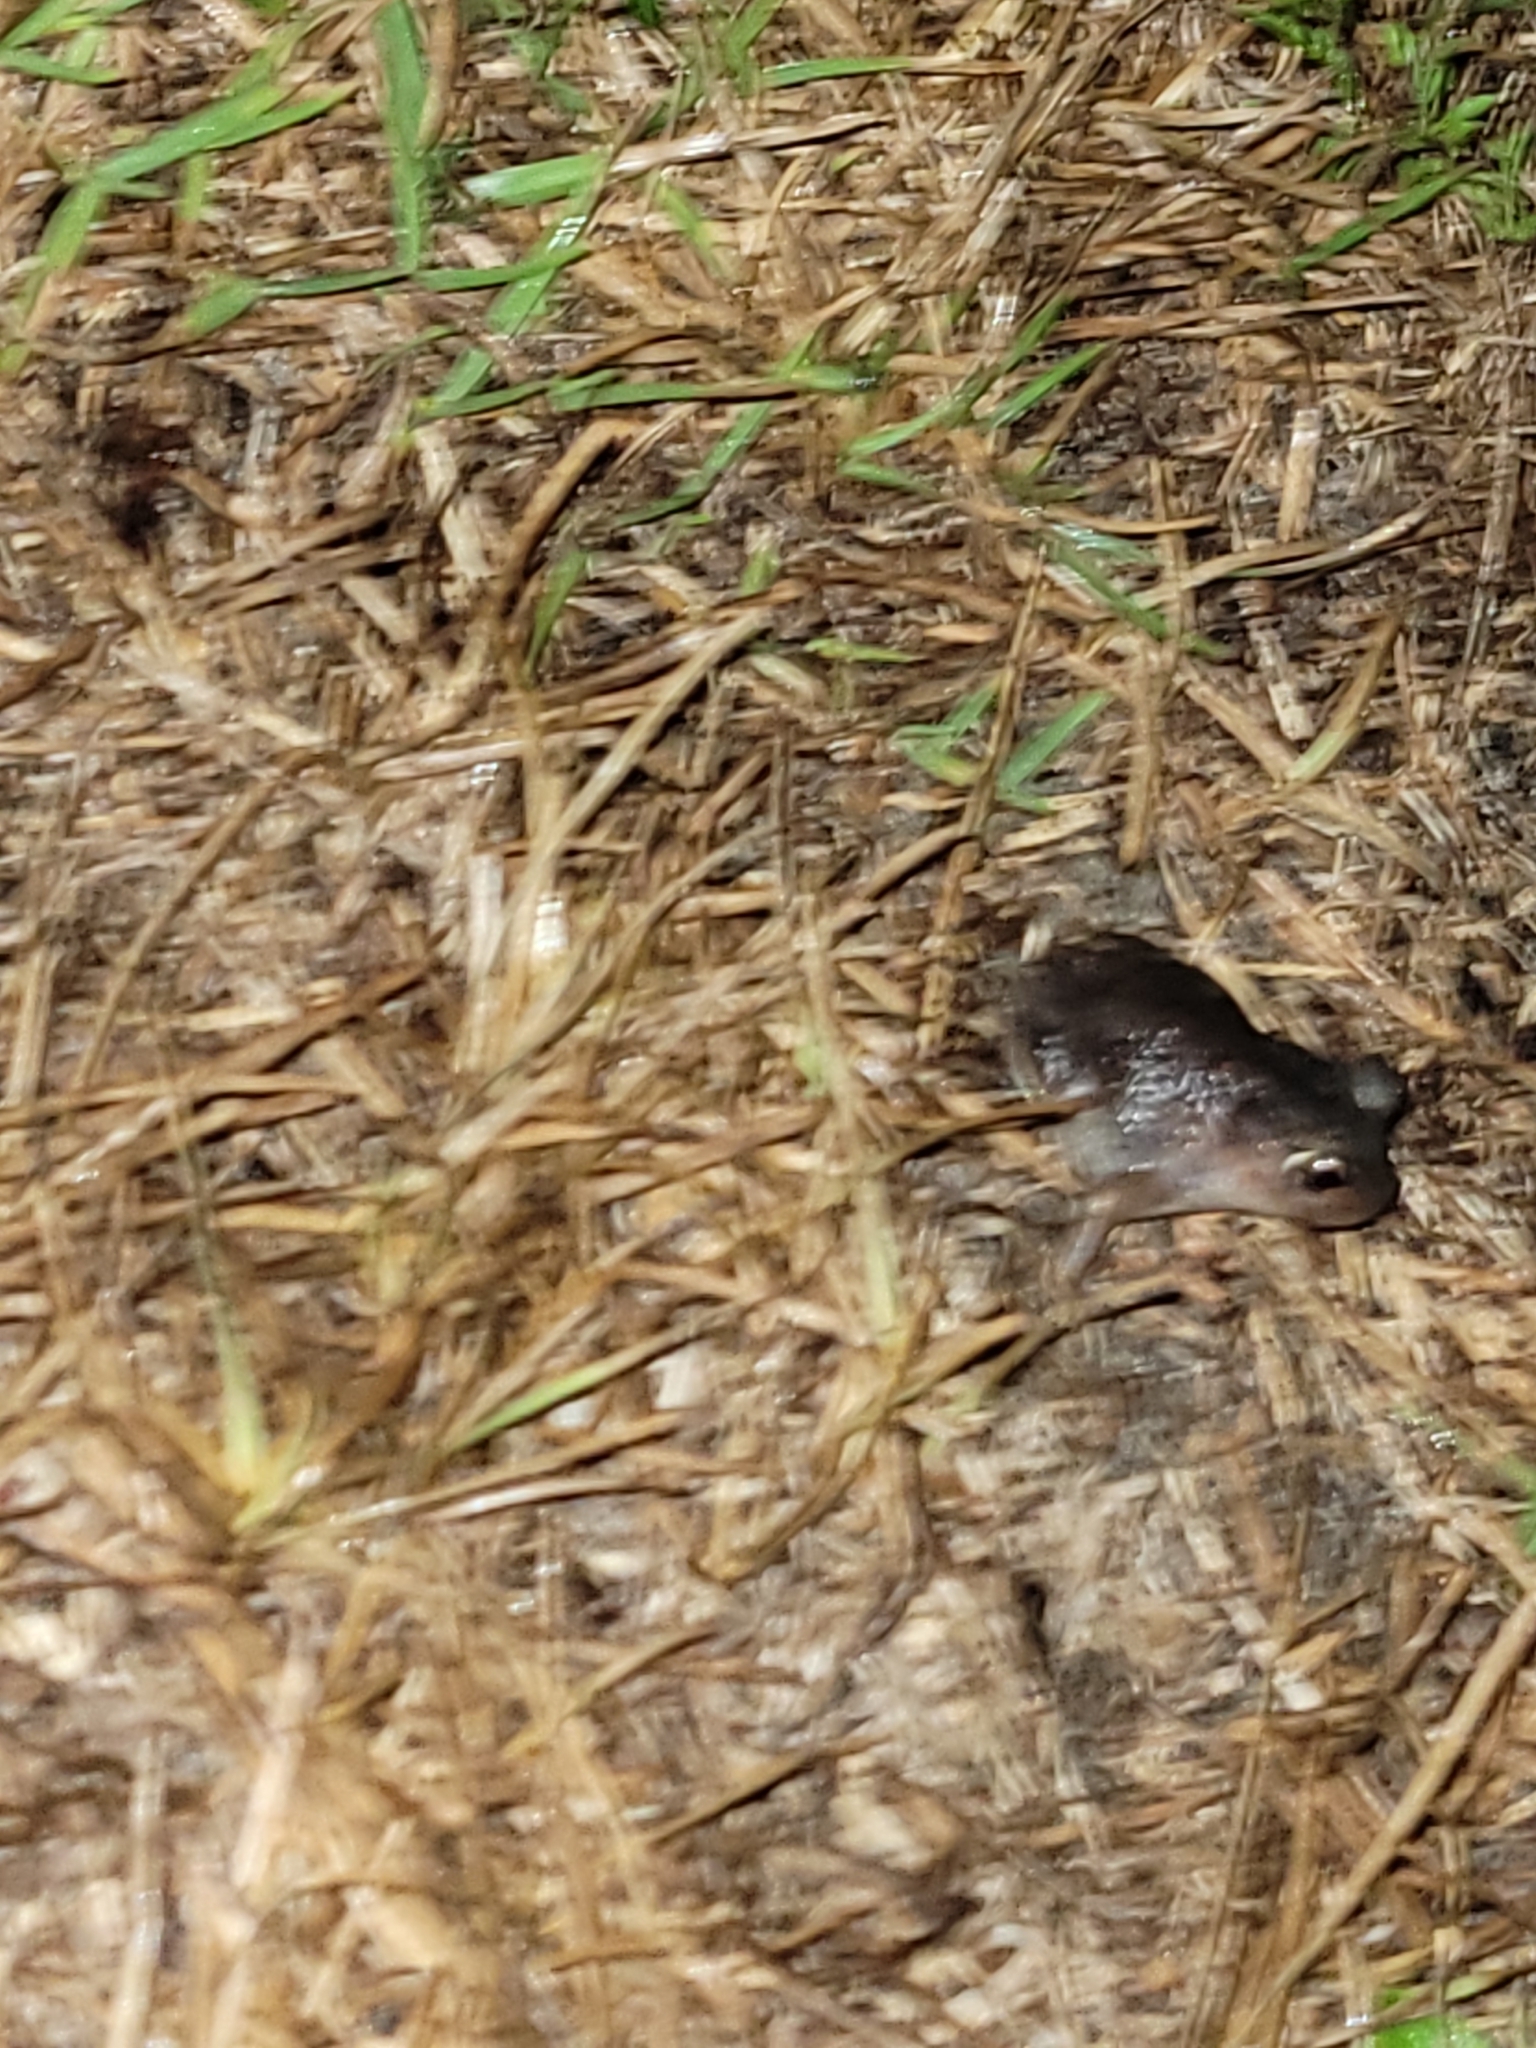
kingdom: Animalia
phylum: Chordata
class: Amphibia
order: Anura
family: Scaphiopodidae
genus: Scaphiopus
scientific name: Scaphiopus holbrookii
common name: Eastern spadefoot toad
